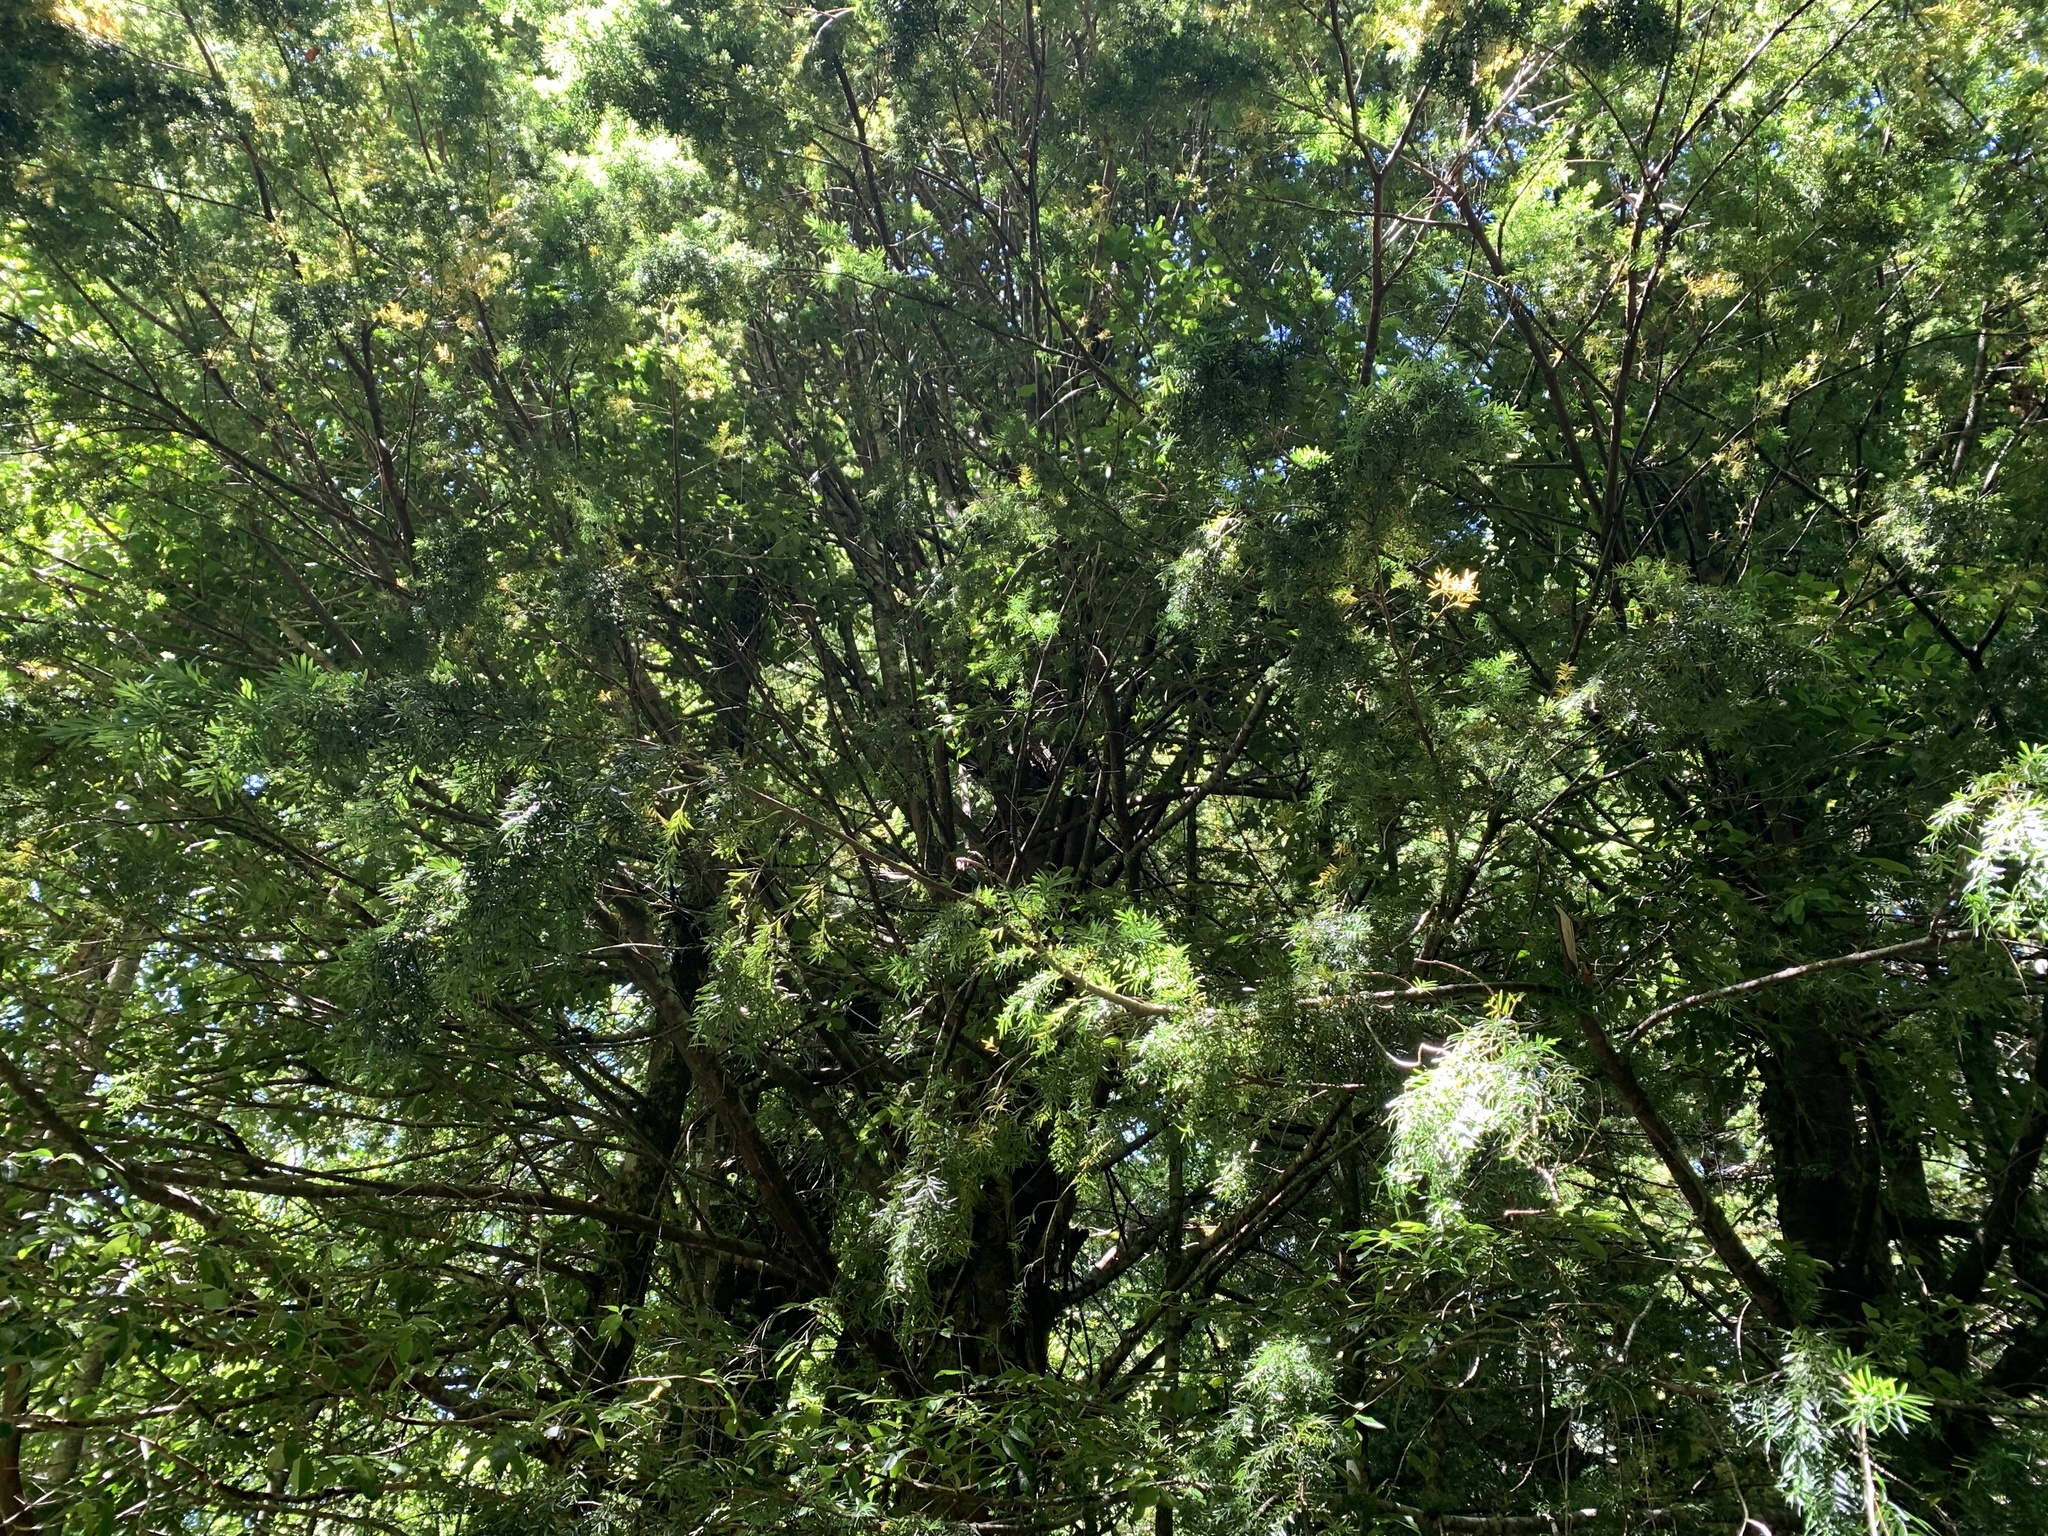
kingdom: Plantae
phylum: Tracheophyta
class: Pinopsida
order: Pinales
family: Podocarpaceae
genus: Prumnopitys
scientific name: Prumnopitys andina
